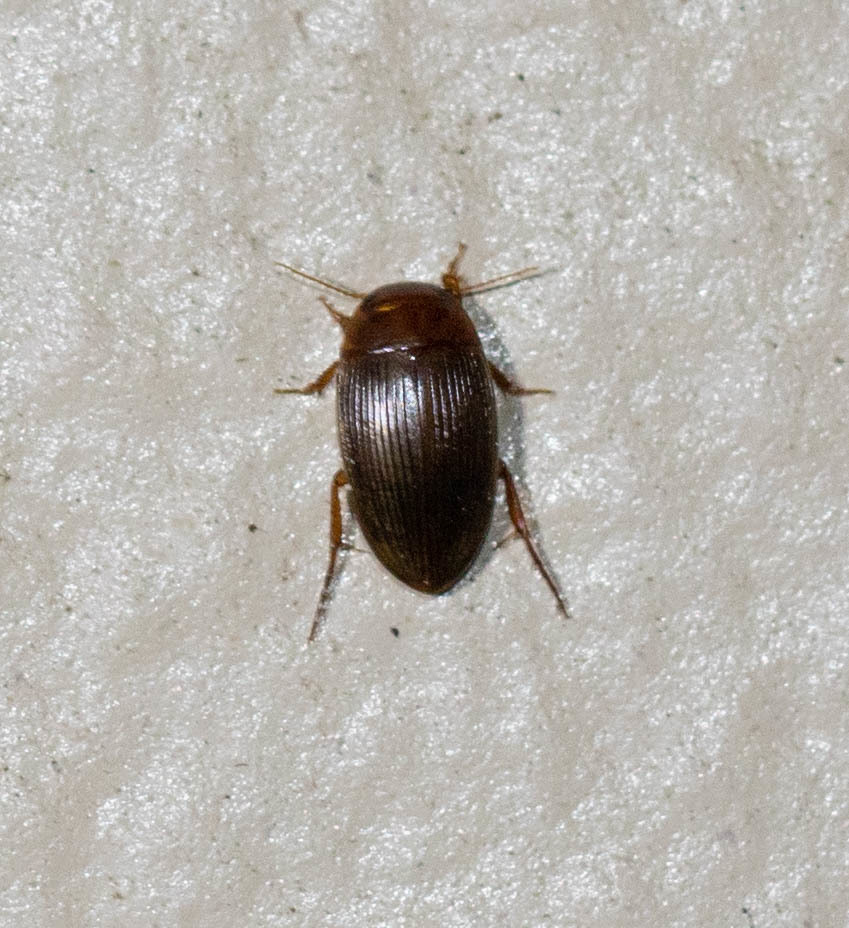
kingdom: Animalia
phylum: Arthropoda
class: Insecta
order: Coleoptera
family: Dytiscidae
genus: Copelatus
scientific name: Copelatus glyphicus
